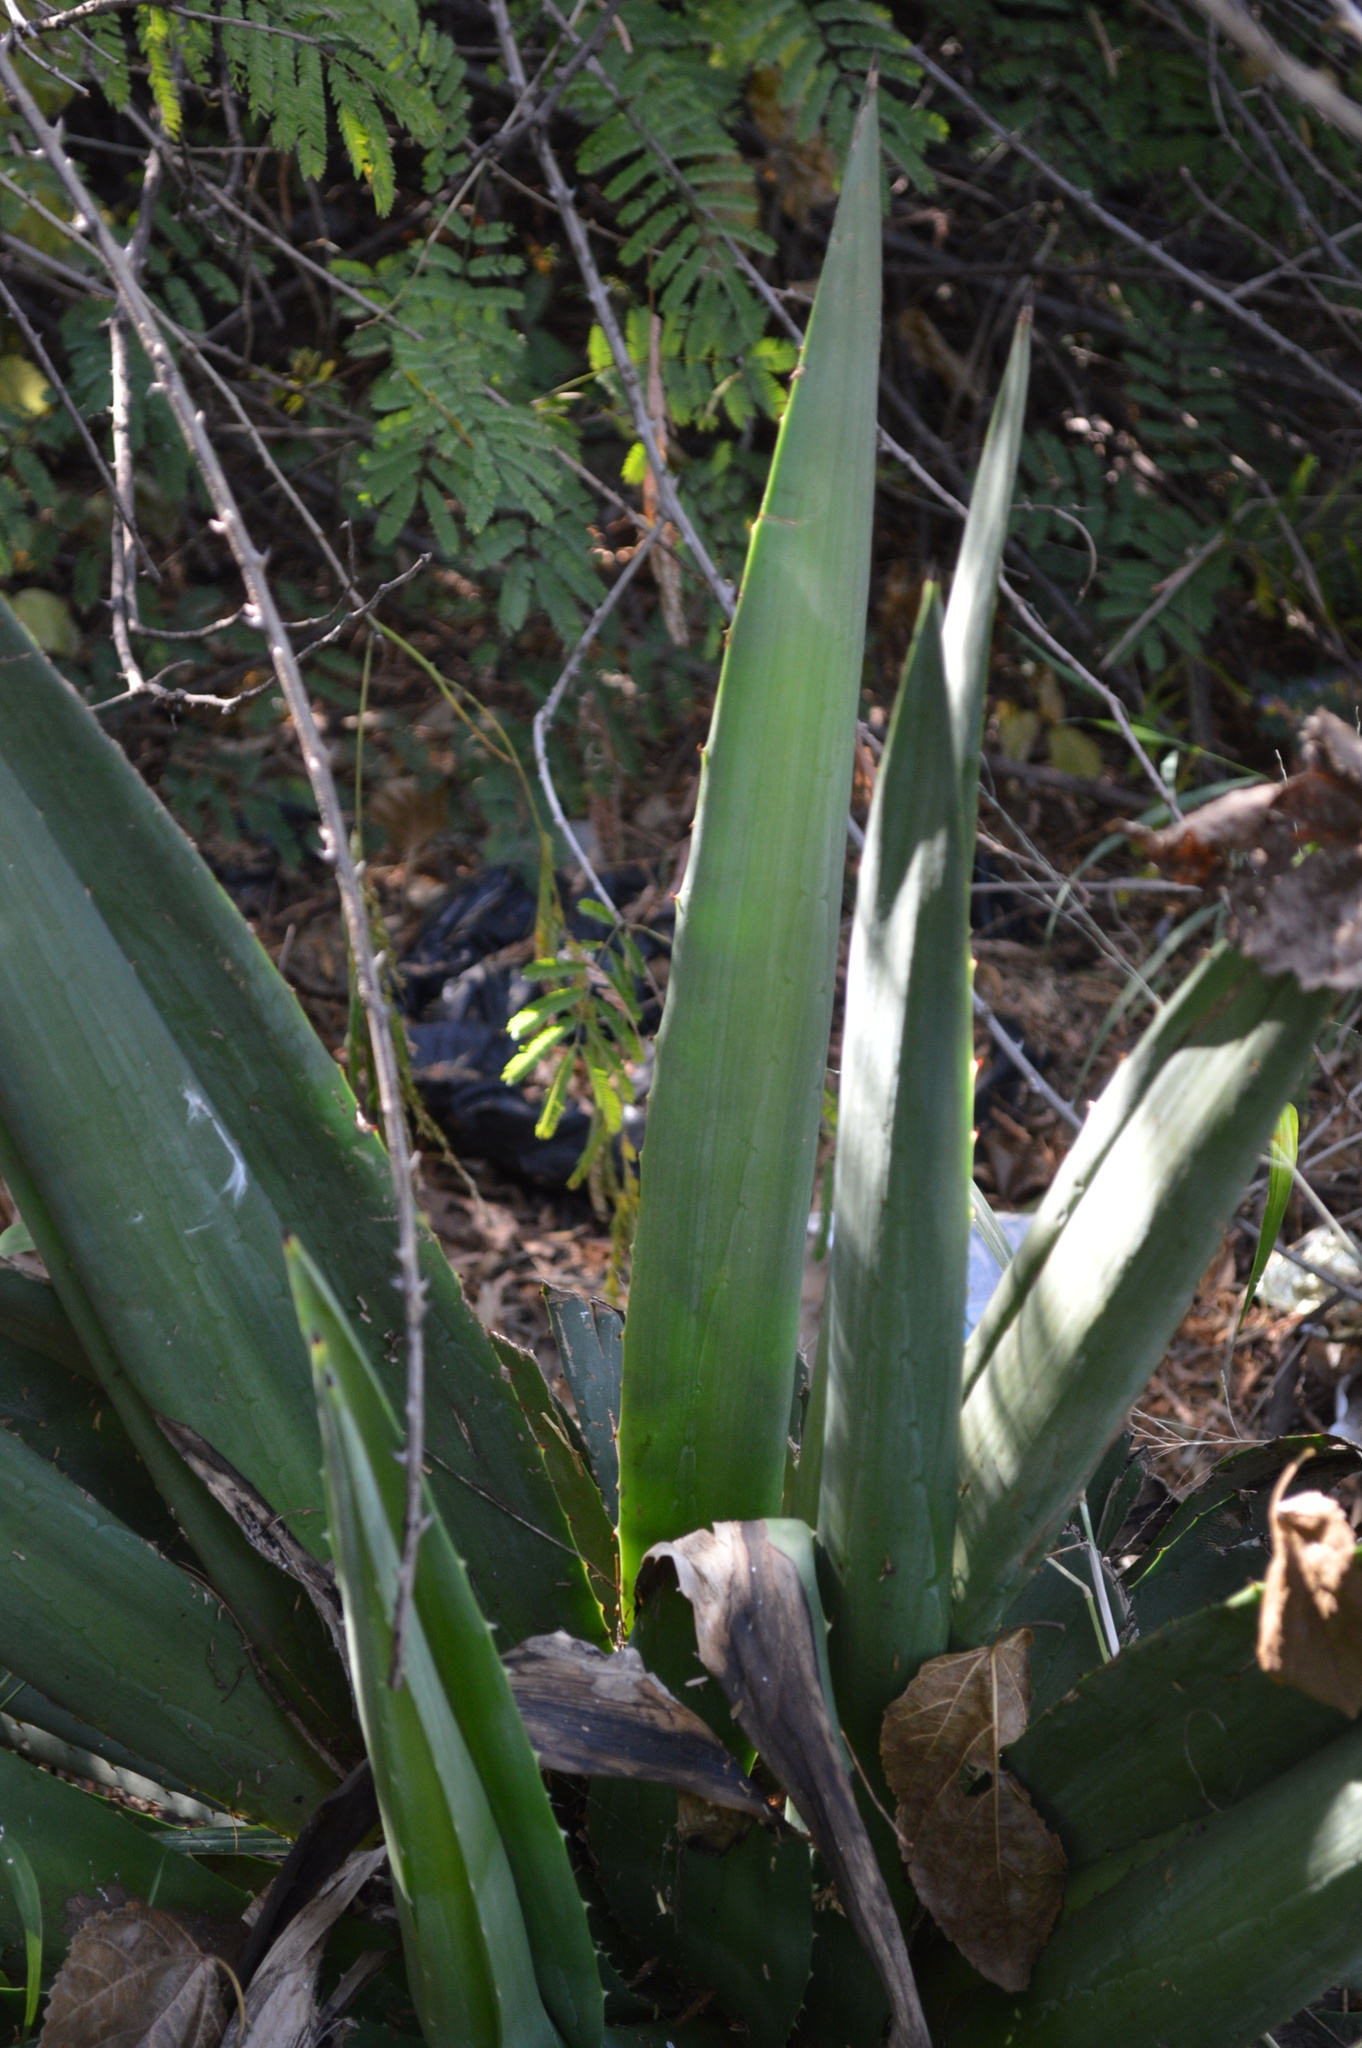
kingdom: Plantae
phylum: Tracheophyta
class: Liliopsida
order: Asparagales
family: Asparagaceae
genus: Agave
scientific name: Agave sisalana
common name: Sisal hemp
